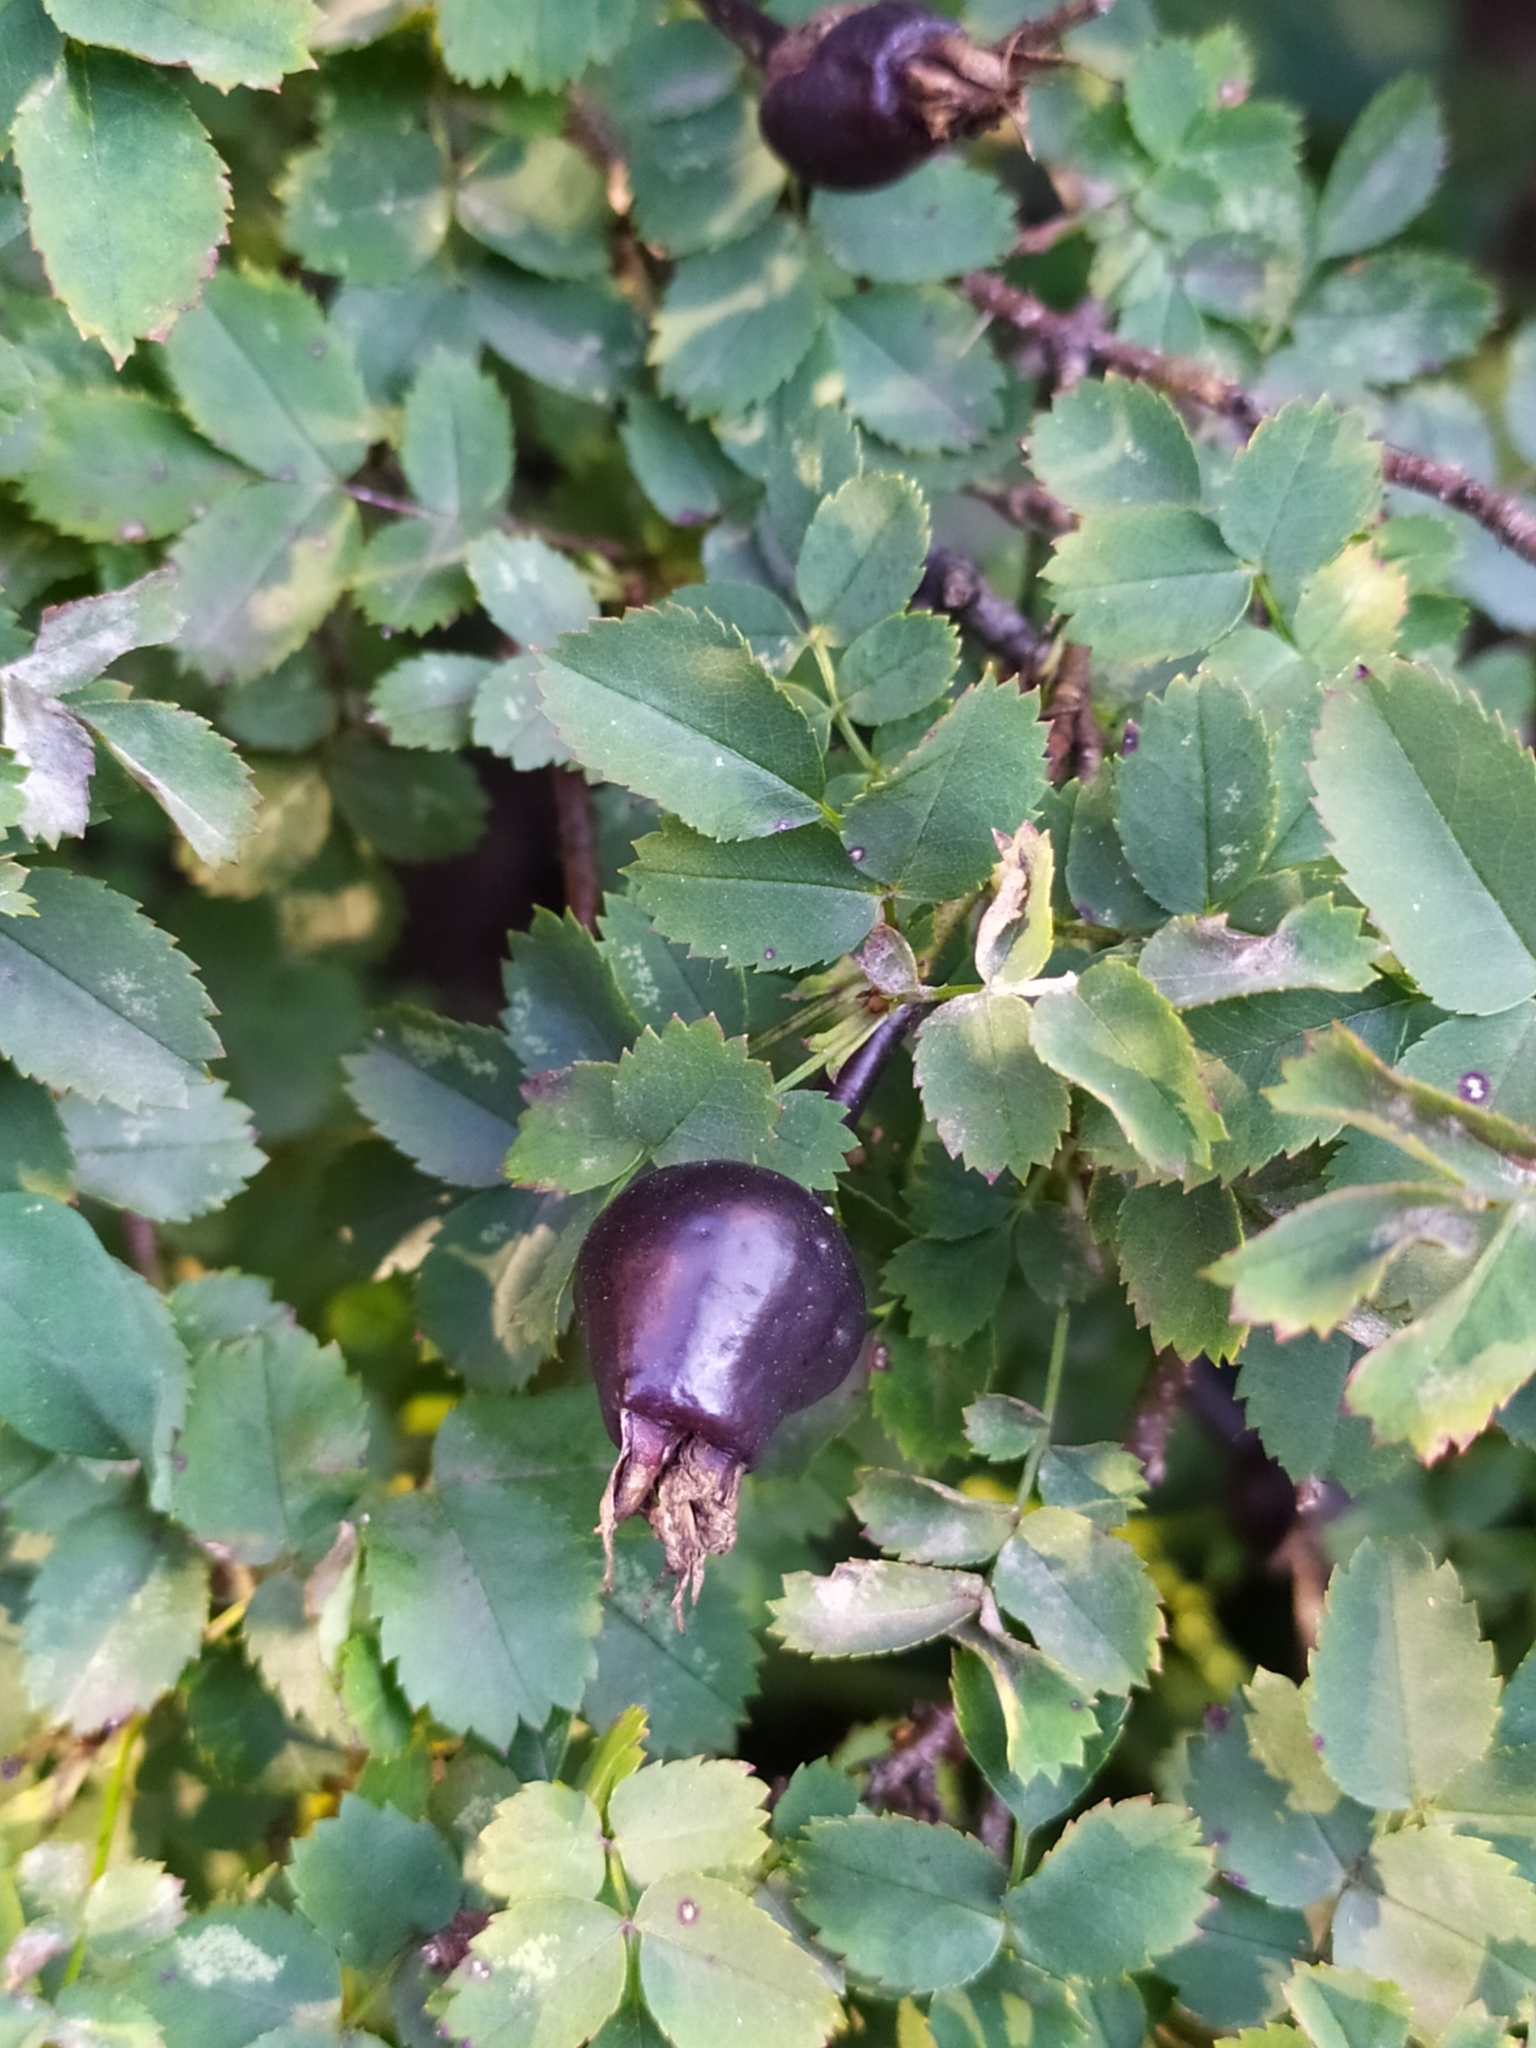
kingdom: Plantae
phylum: Tracheophyta
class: Magnoliopsida
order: Rosales
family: Rosaceae
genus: Rosa
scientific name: Rosa spinosissima
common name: Burnet rose
